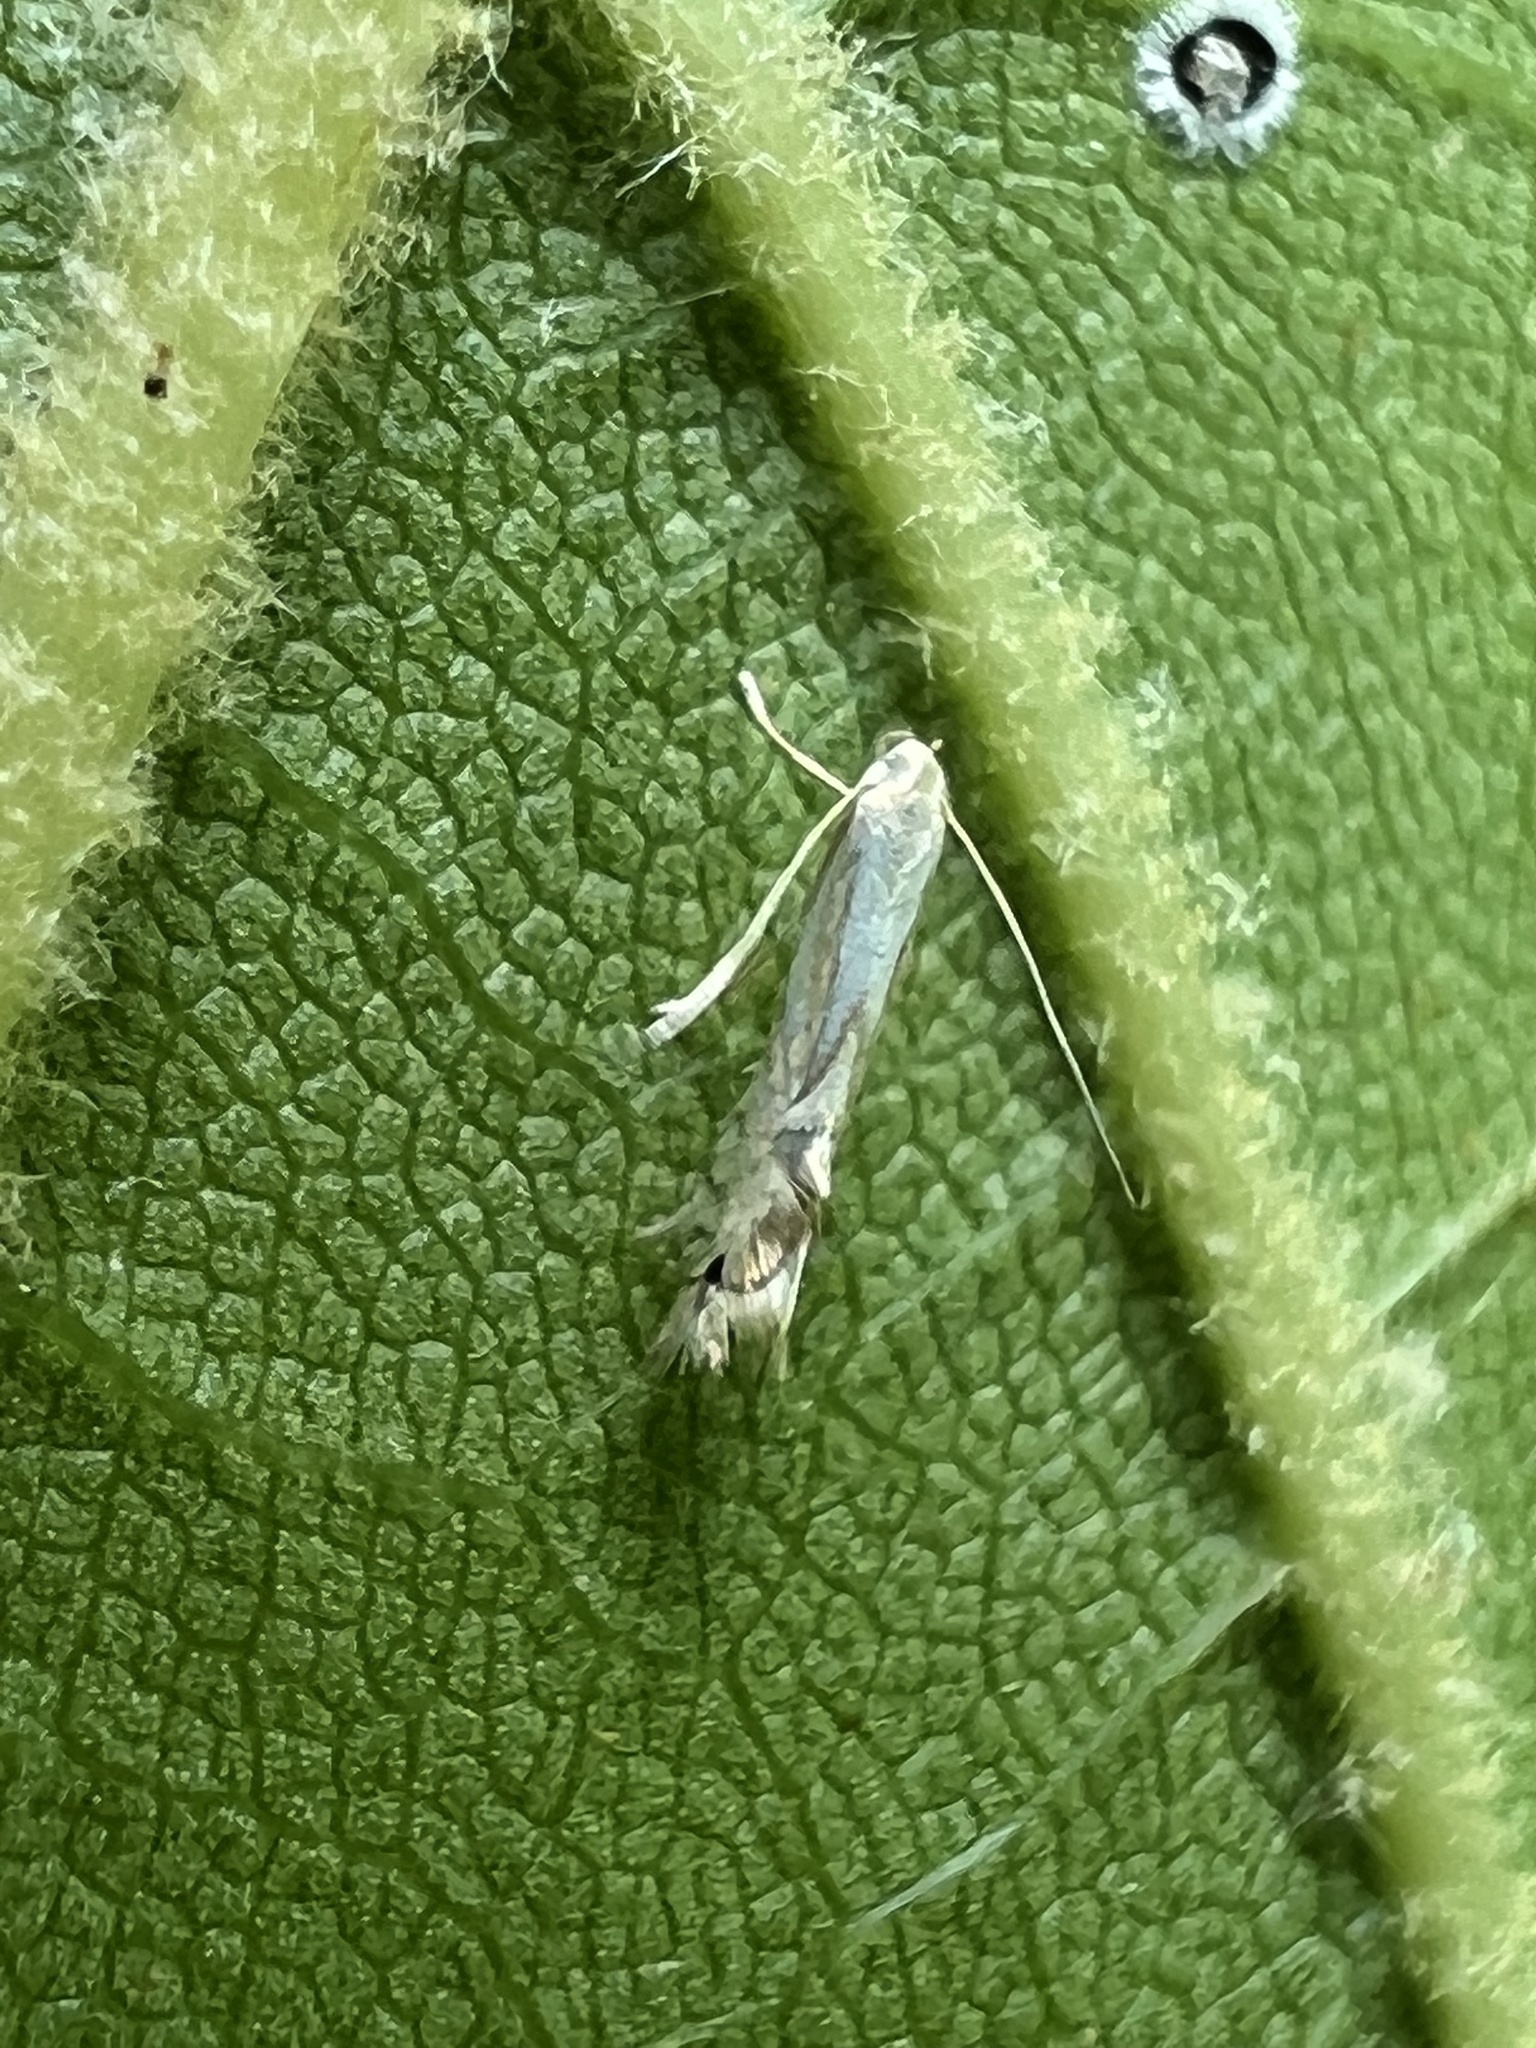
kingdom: Animalia
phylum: Arthropoda
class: Insecta
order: Lepidoptera
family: Gracillariidae
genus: Phyllocnistis
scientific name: Phyllocnistis liriodendronella
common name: Tulip tree leaf miner
